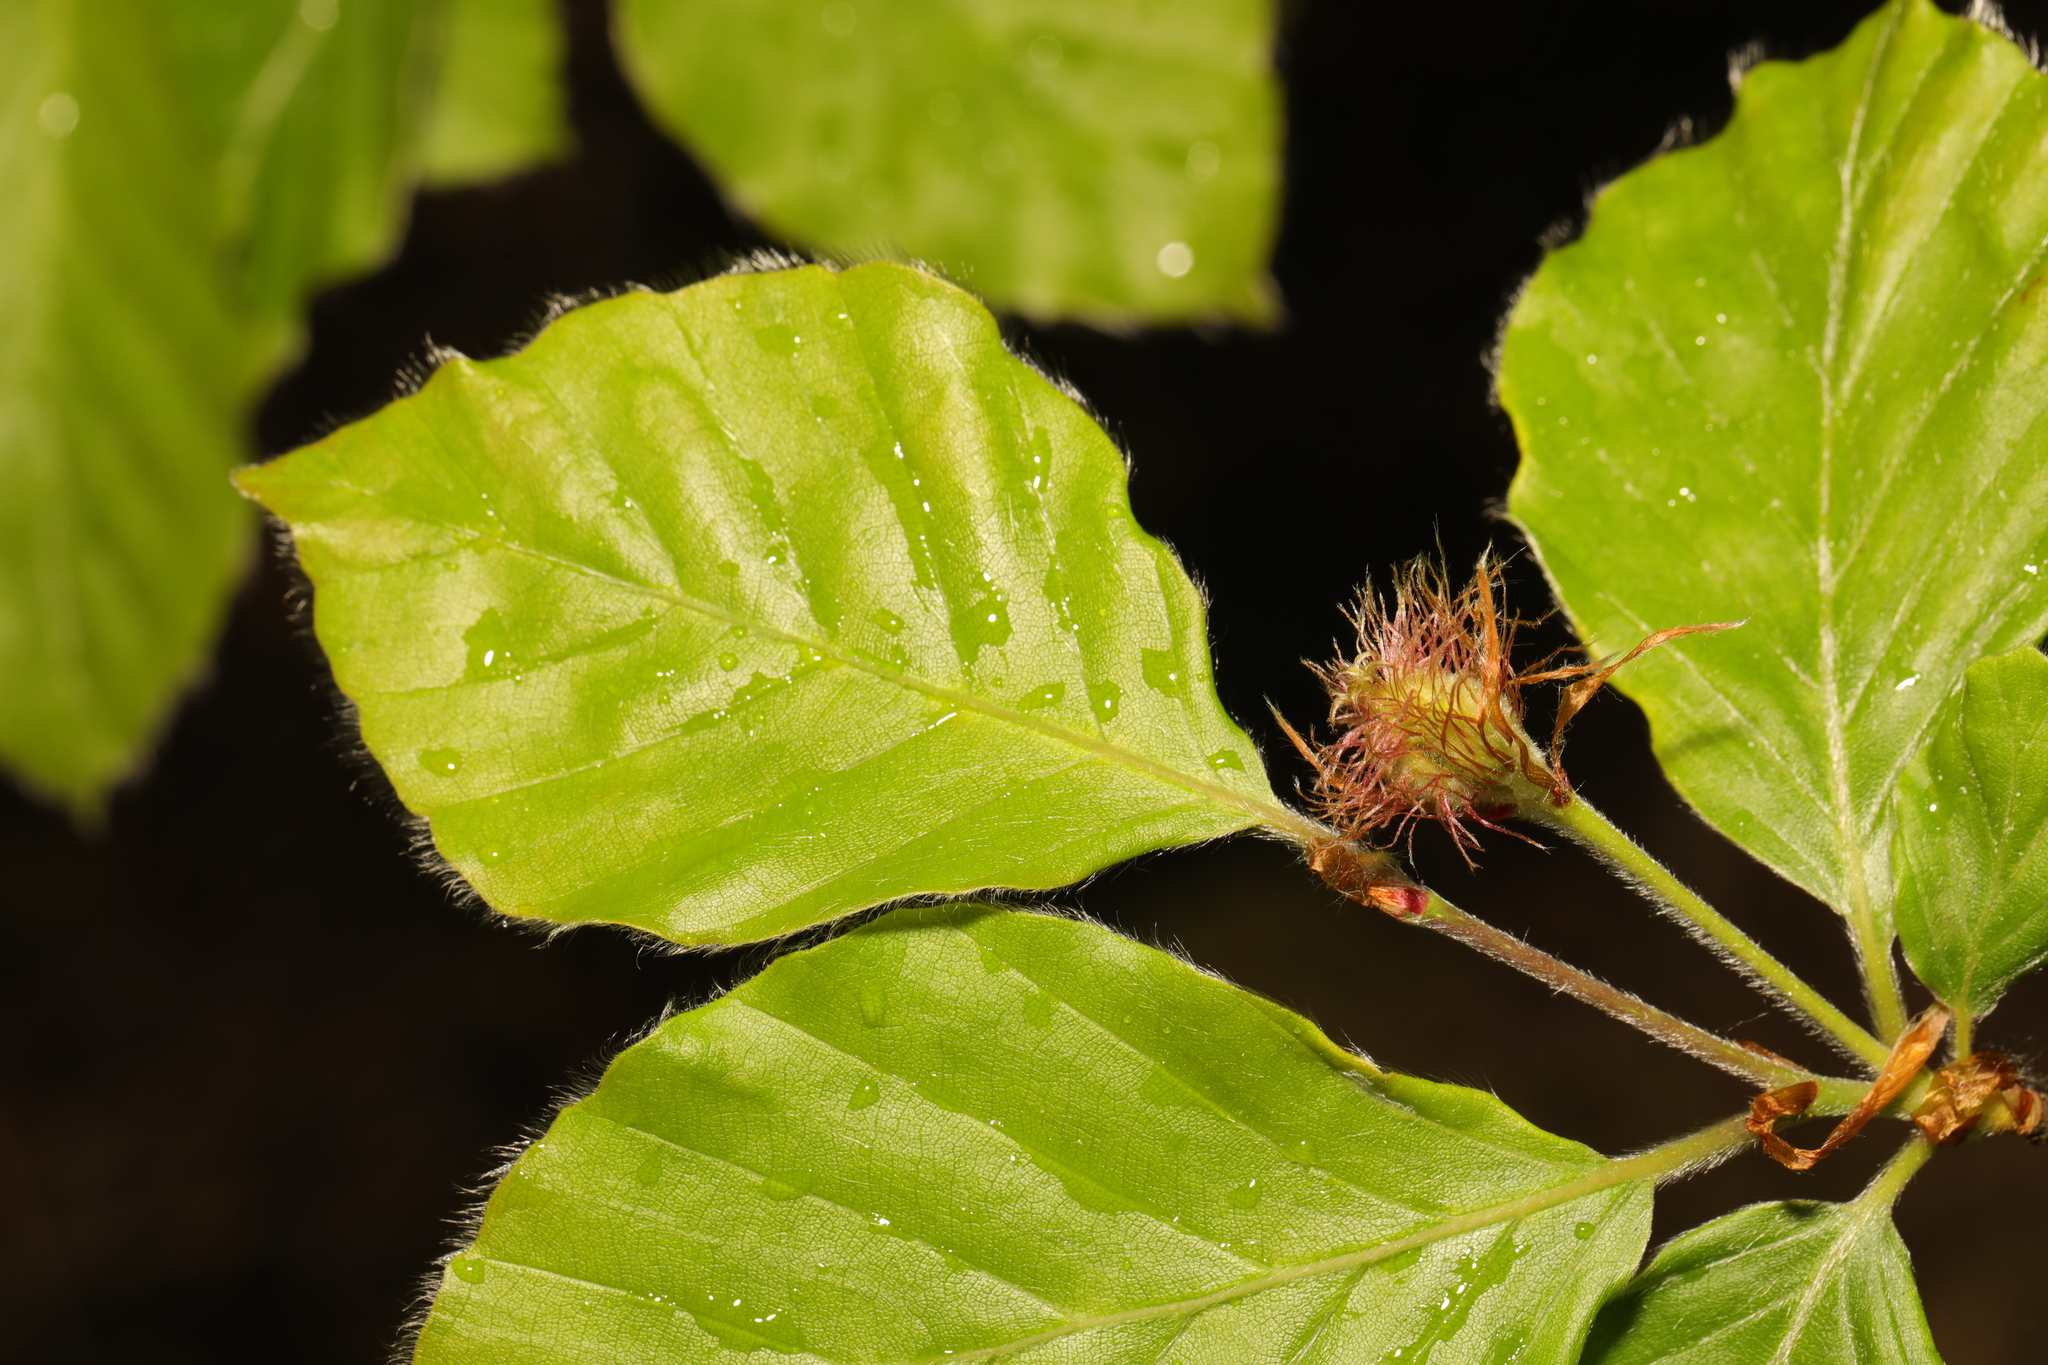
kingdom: Plantae
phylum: Tracheophyta
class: Magnoliopsida
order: Fagales
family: Fagaceae
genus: Fagus
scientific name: Fagus sylvatica
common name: Beech
